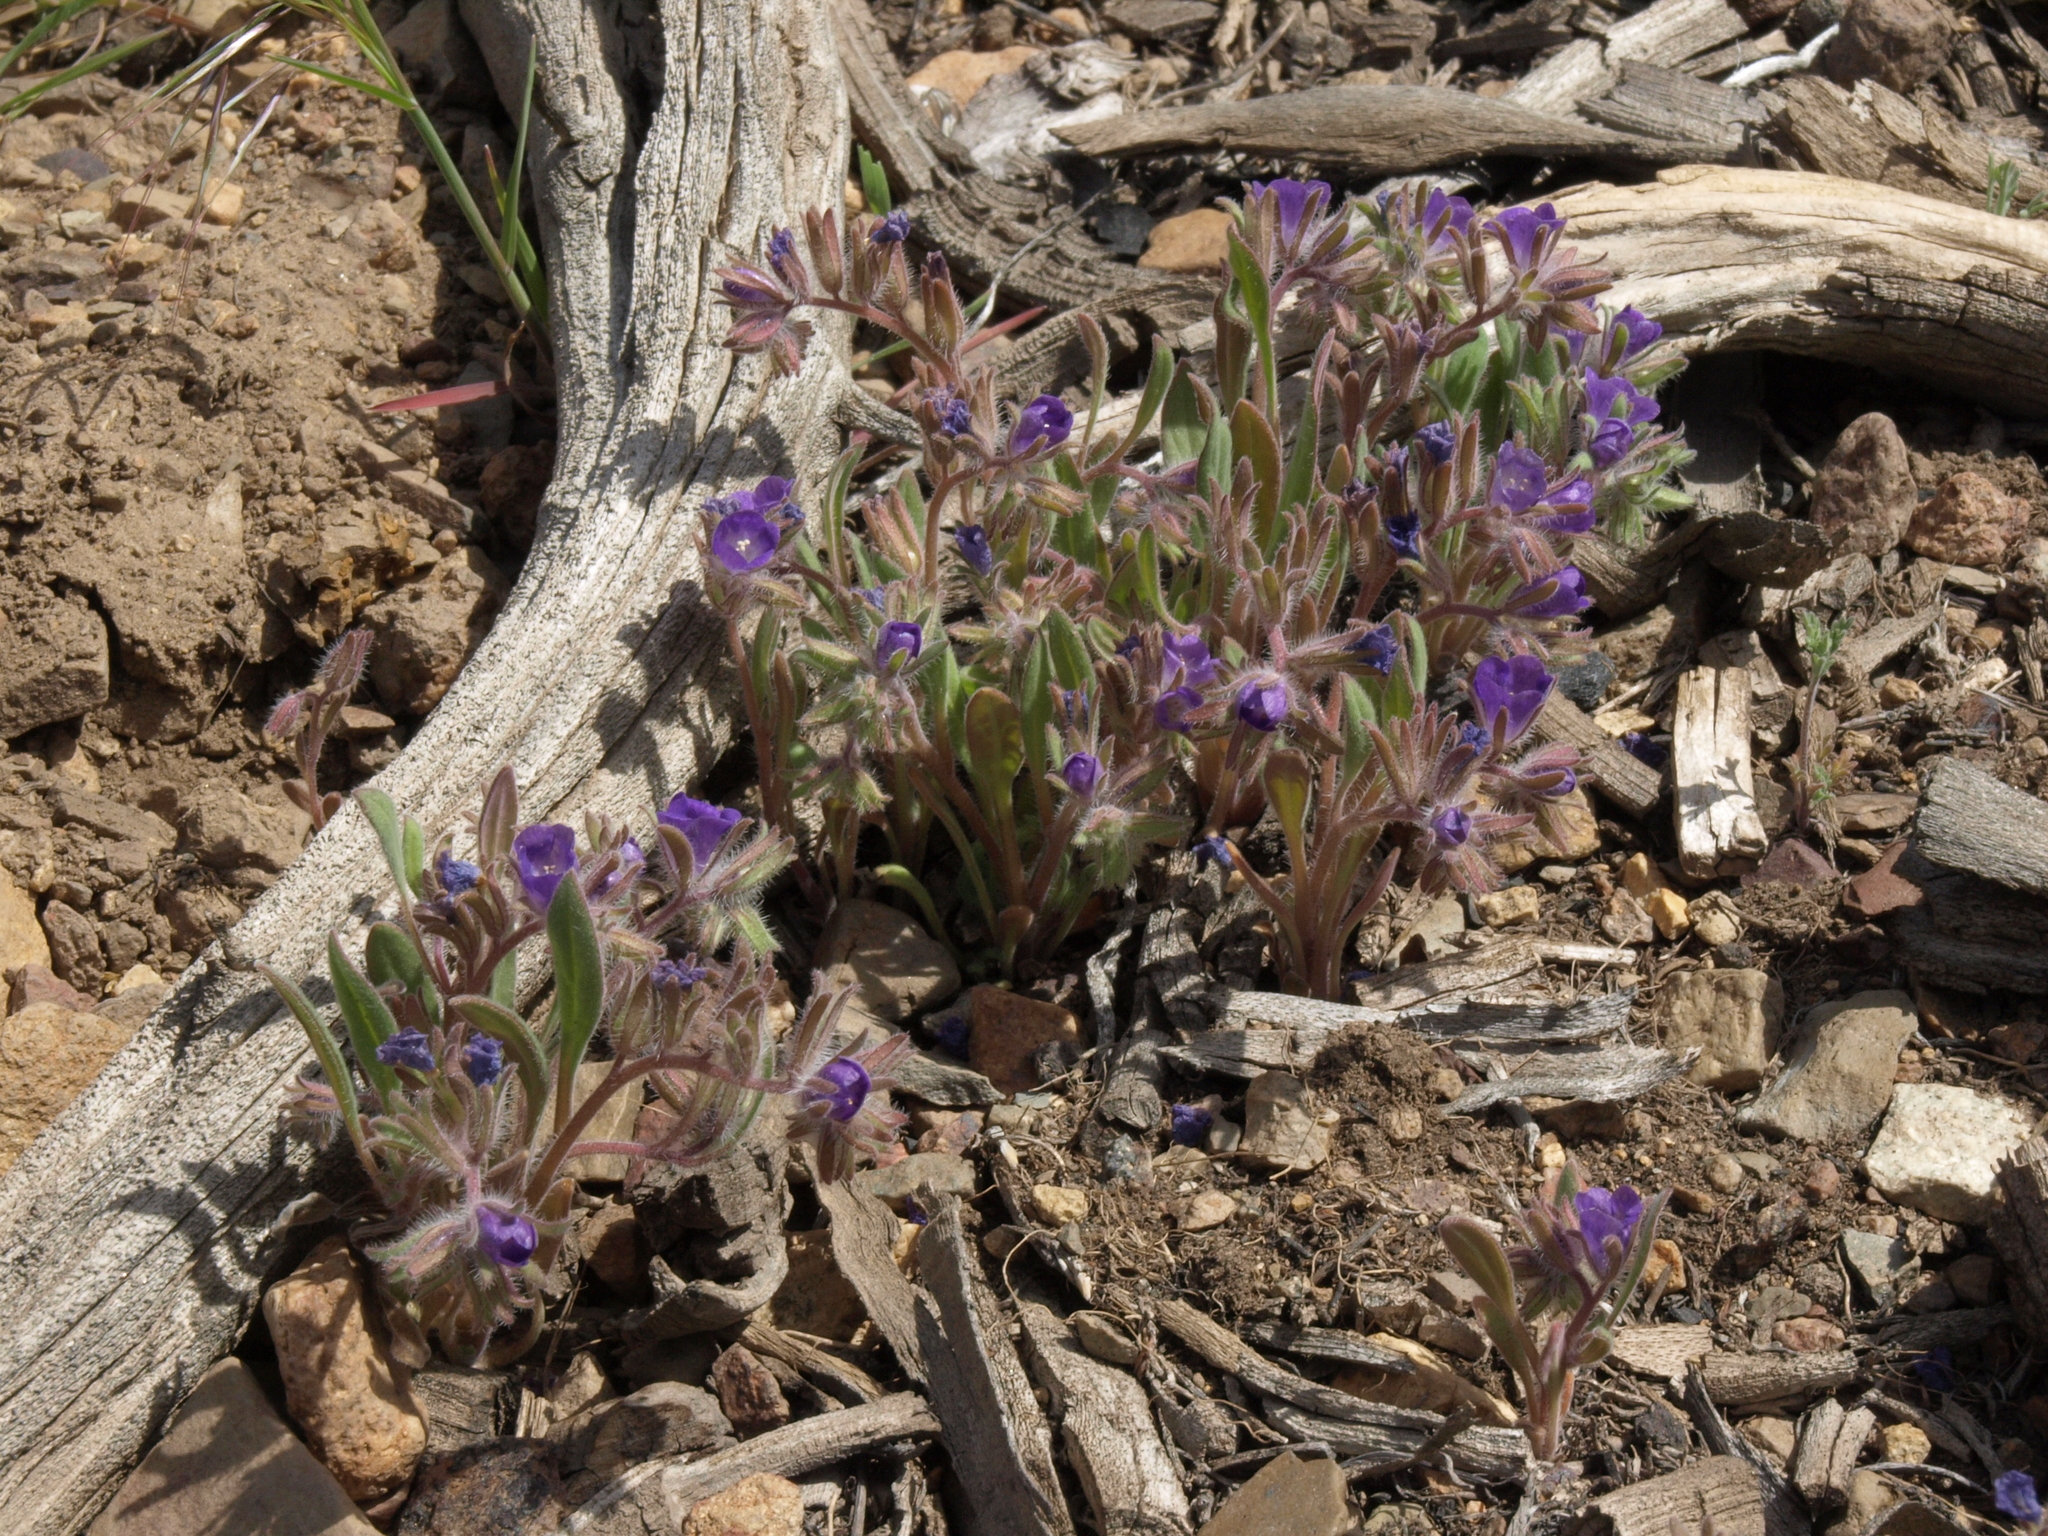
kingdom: Plantae
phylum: Tracheophyta
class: Magnoliopsida
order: Boraginales
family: Hydrophyllaceae
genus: Phacelia
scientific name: Phacelia curvipes
